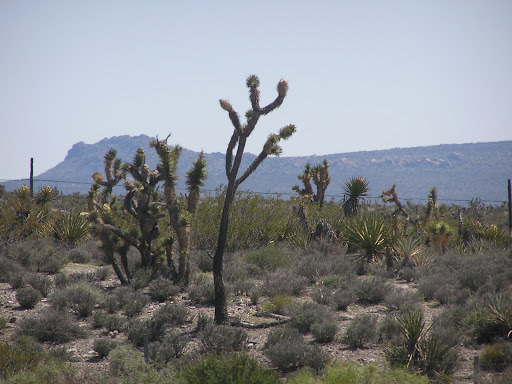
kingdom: Plantae
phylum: Tracheophyta
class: Liliopsida
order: Asparagales
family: Asparagaceae
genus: Yucca
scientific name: Yucca brevifolia
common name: Joshua tree
